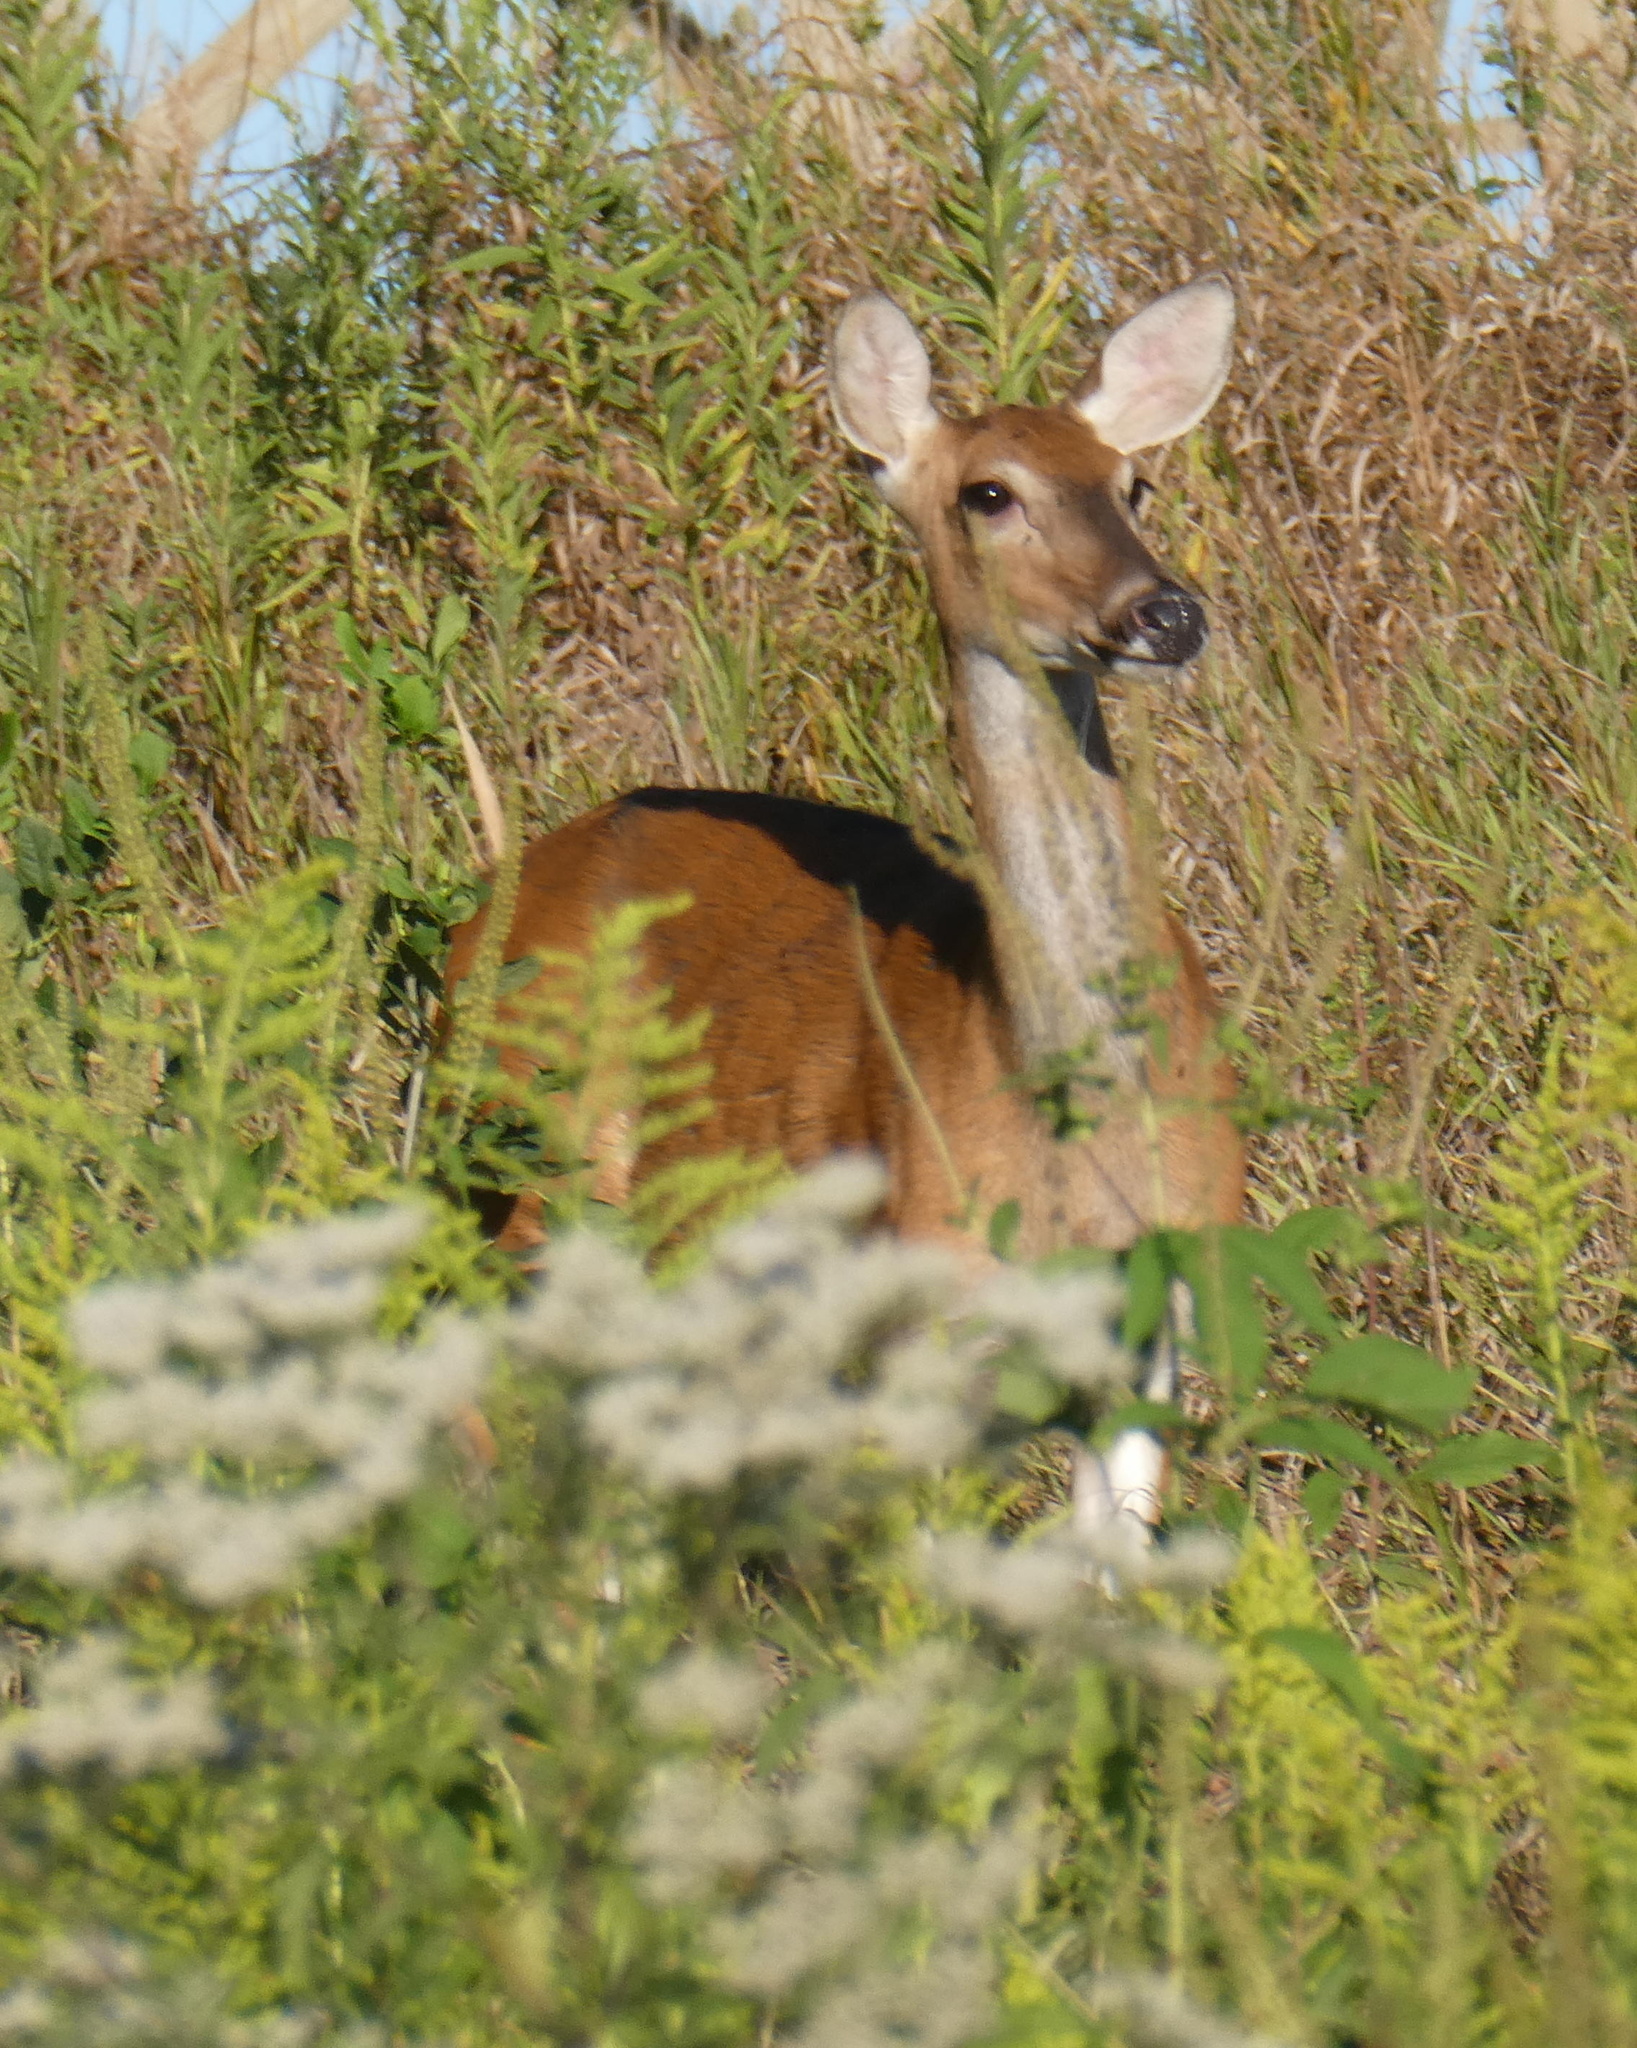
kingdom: Animalia
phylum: Chordata
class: Mammalia
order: Artiodactyla
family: Cervidae
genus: Odocoileus
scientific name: Odocoileus virginianus
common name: White-tailed deer
